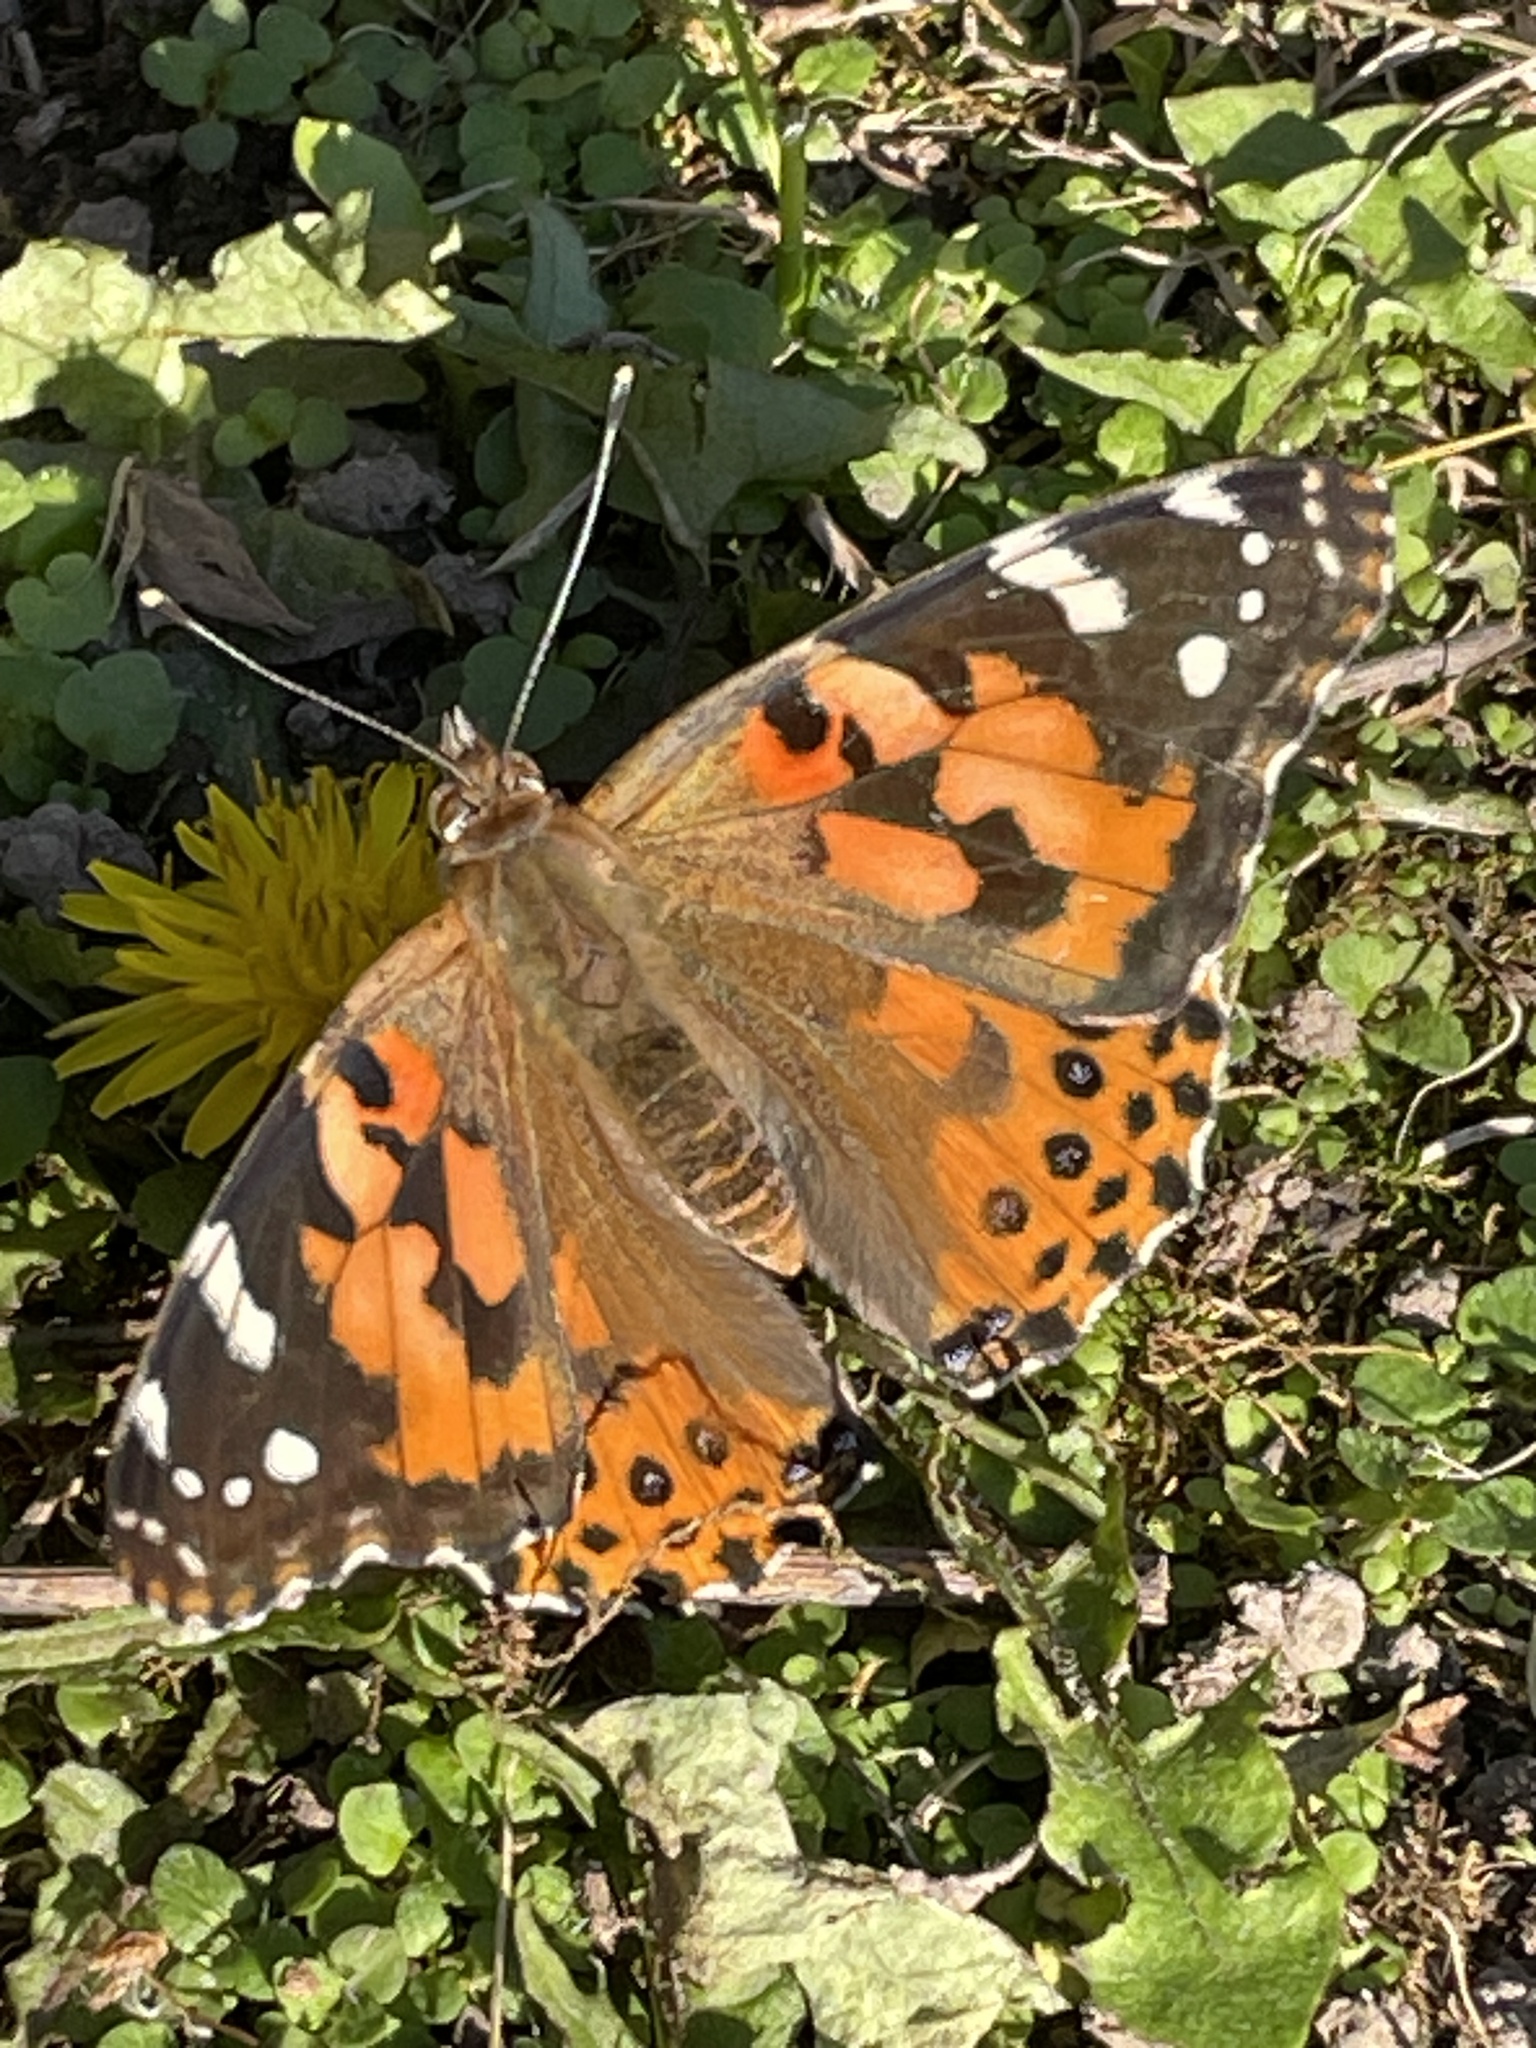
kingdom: Animalia
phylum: Arthropoda
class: Insecta
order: Lepidoptera
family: Nymphalidae
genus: Vanessa
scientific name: Vanessa cardui
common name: Painted lady
